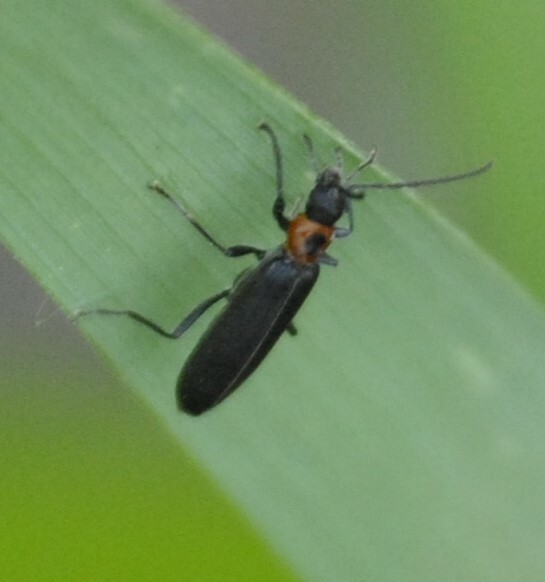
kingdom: Animalia
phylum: Arthropoda
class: Insecta
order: Coleoptera
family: Oedemeridae
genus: Ischnomera
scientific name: Ischnomera
